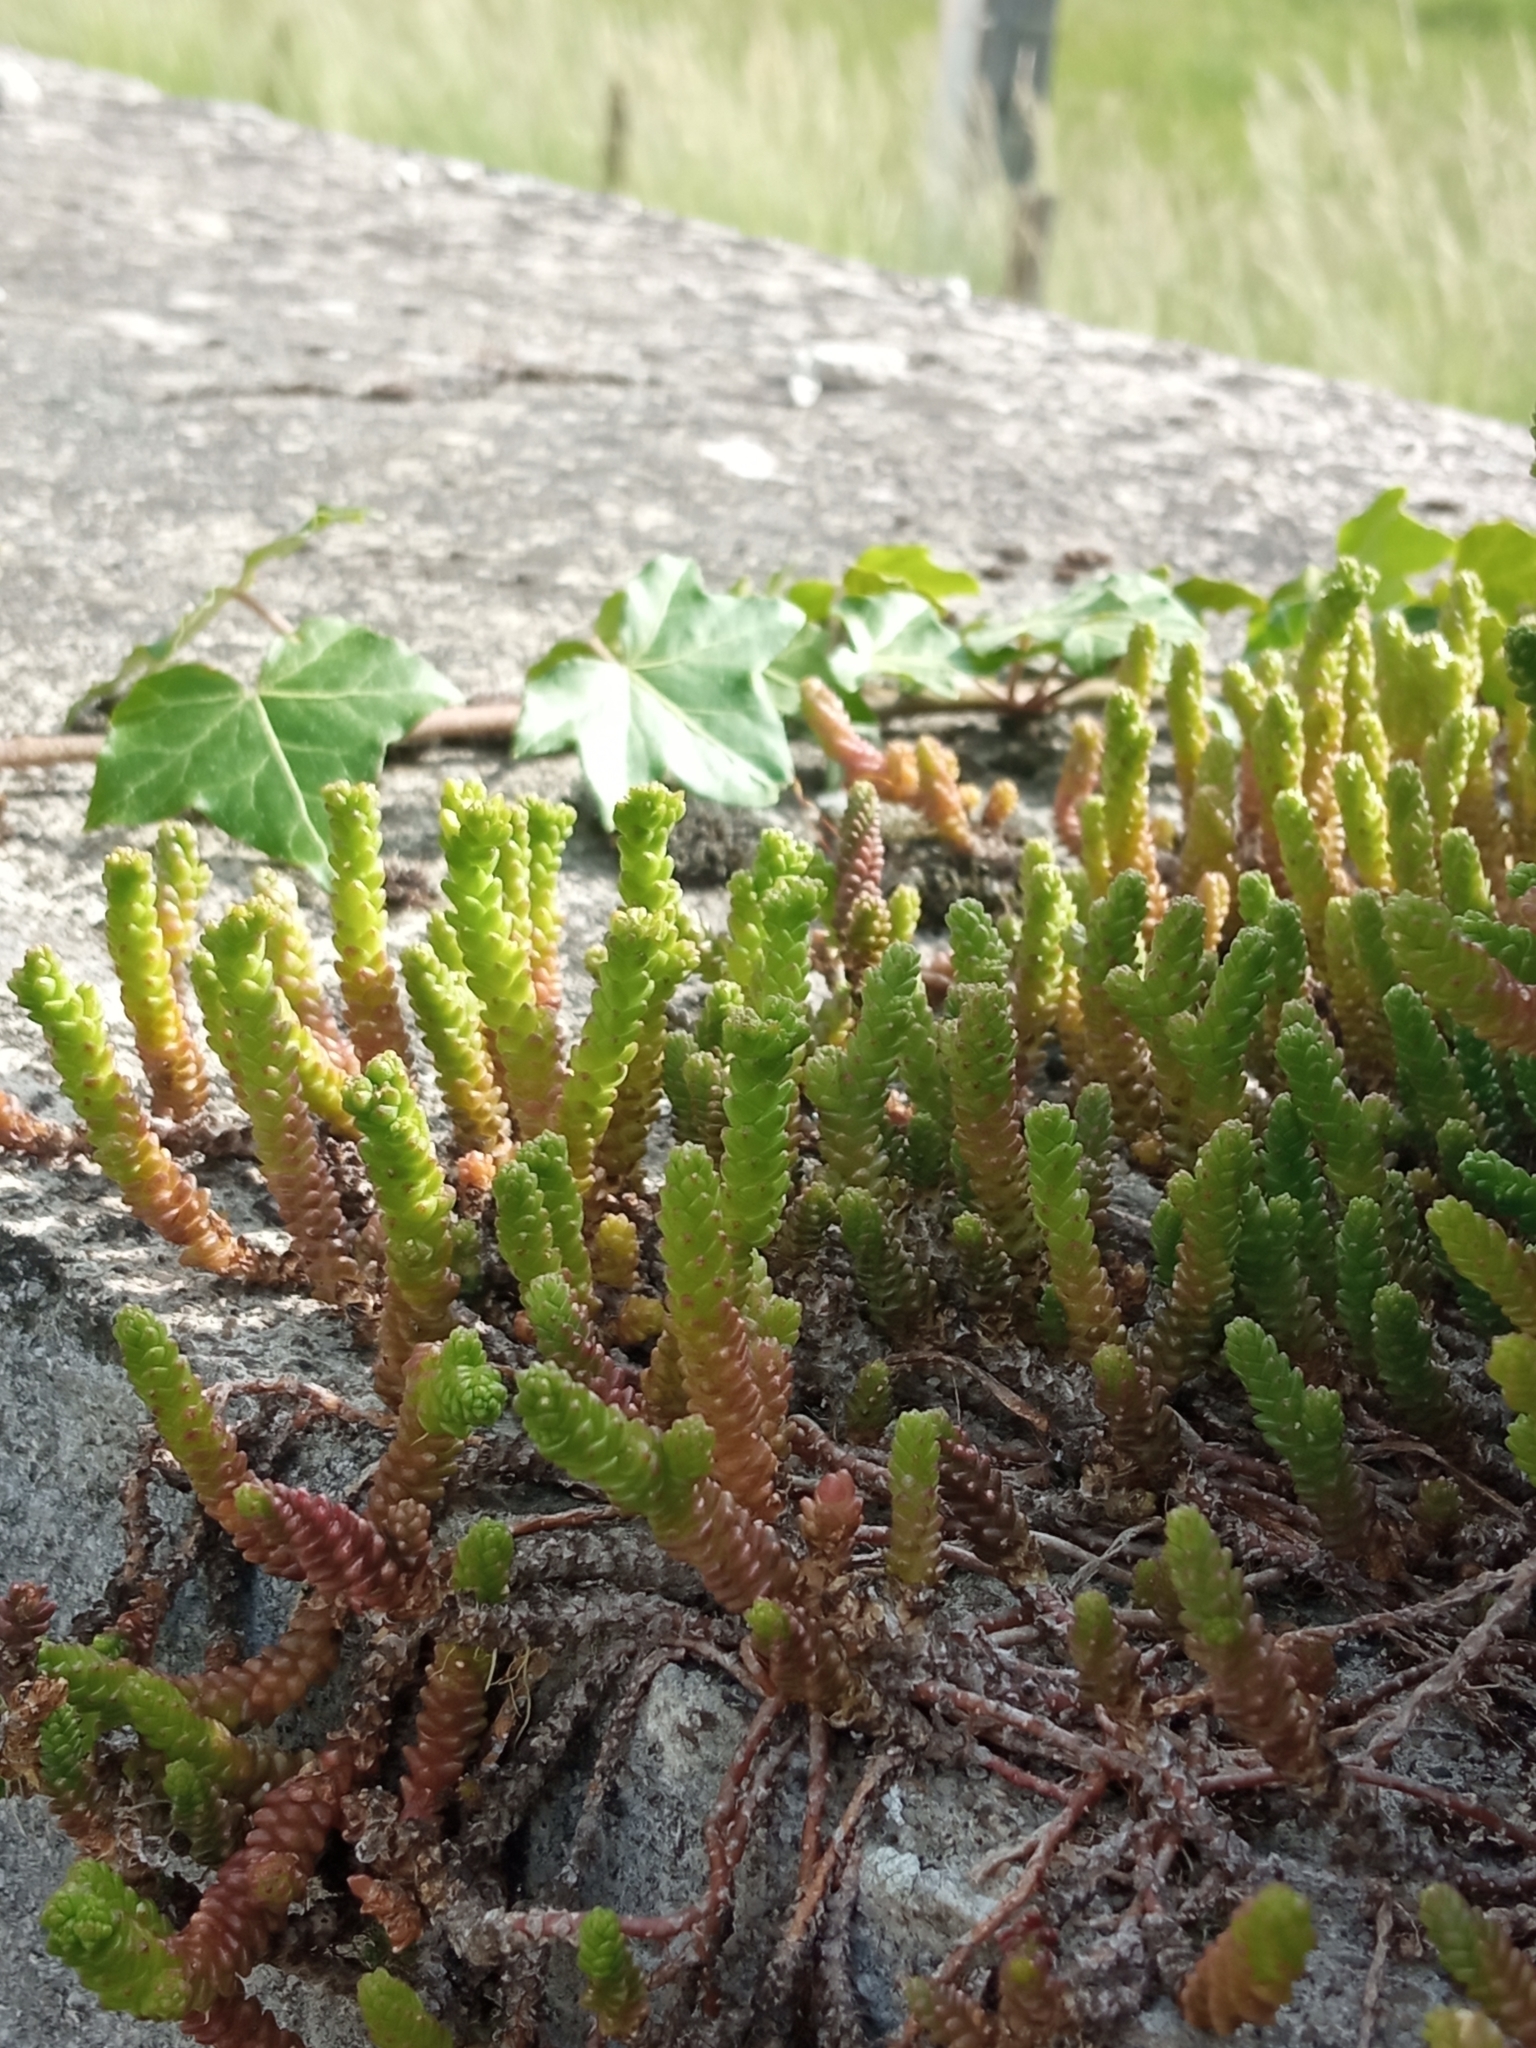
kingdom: Plantae
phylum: Tracheophyta
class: Magnoliopsida
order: Saxifragales
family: Crassulaceae
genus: Sedum
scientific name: Sedum acre
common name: Biting stonecrop
